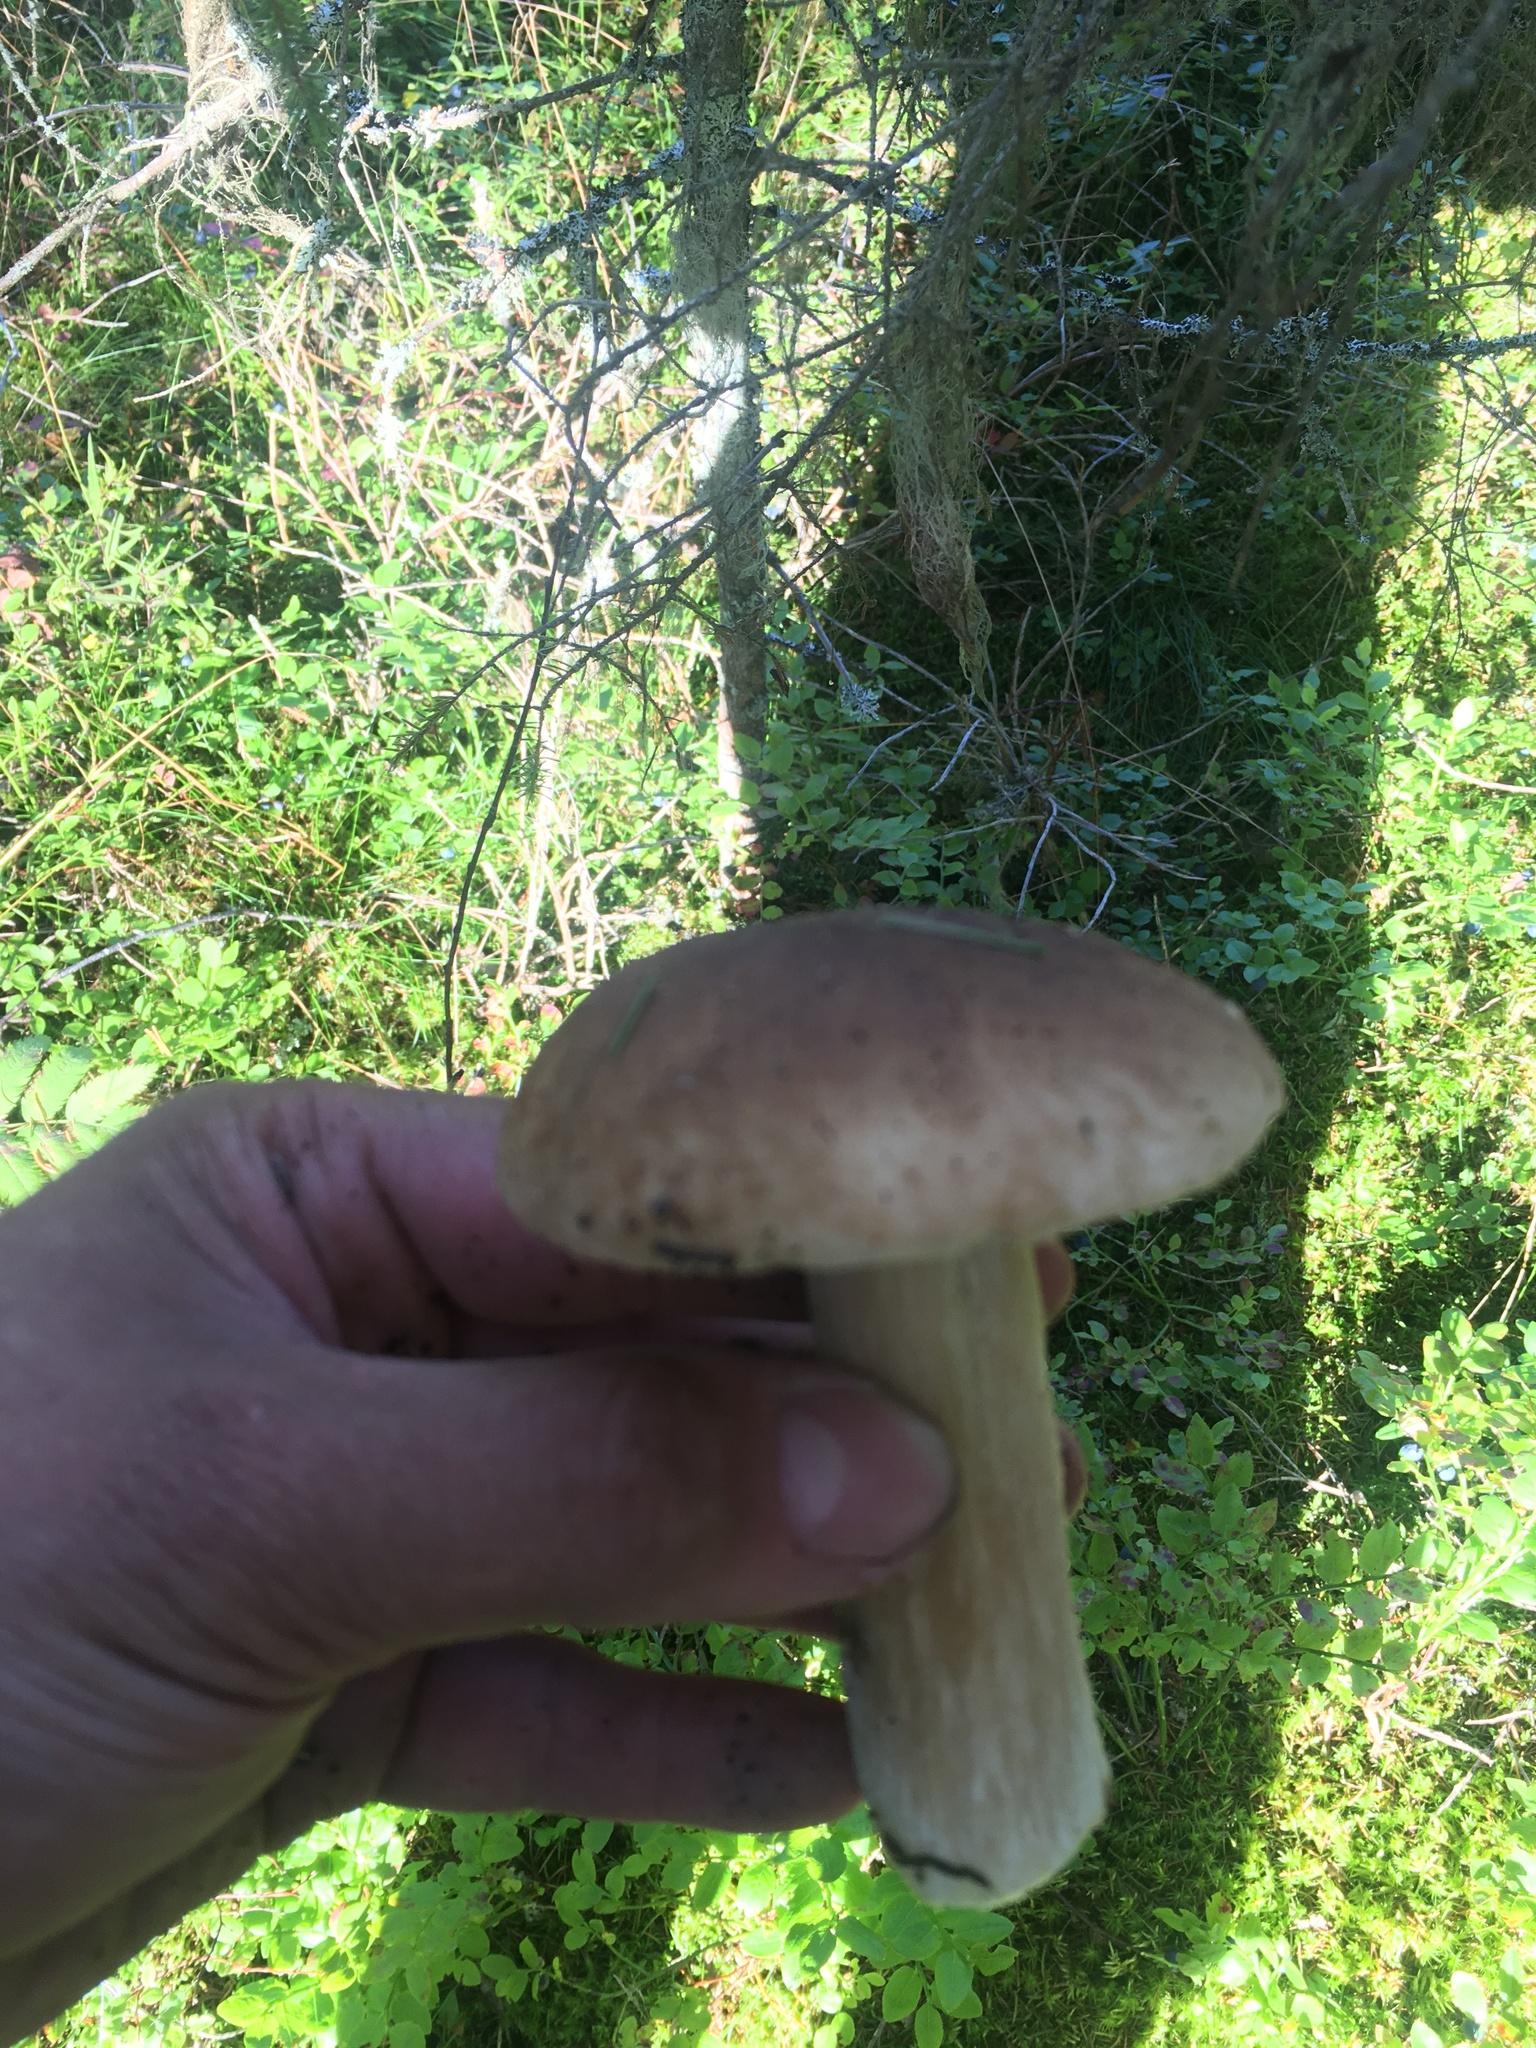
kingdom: Fungi
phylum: Basidiomycota
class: Agaricomycetes
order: Boletales
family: Boletaceae
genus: Boletus
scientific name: Boletus edulis
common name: Cep
